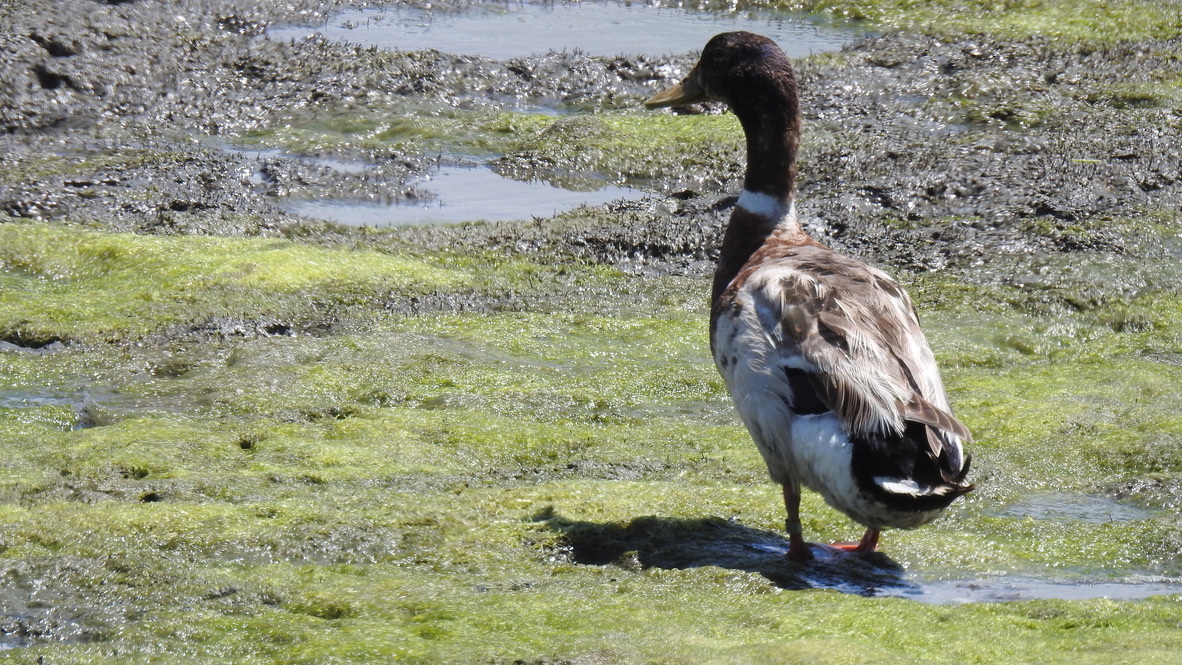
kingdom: Animalia
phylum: Chordata
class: Aves
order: Anseriformes
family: Anatidae
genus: Anas
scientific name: Anas platyrhynchos
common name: Mallard
